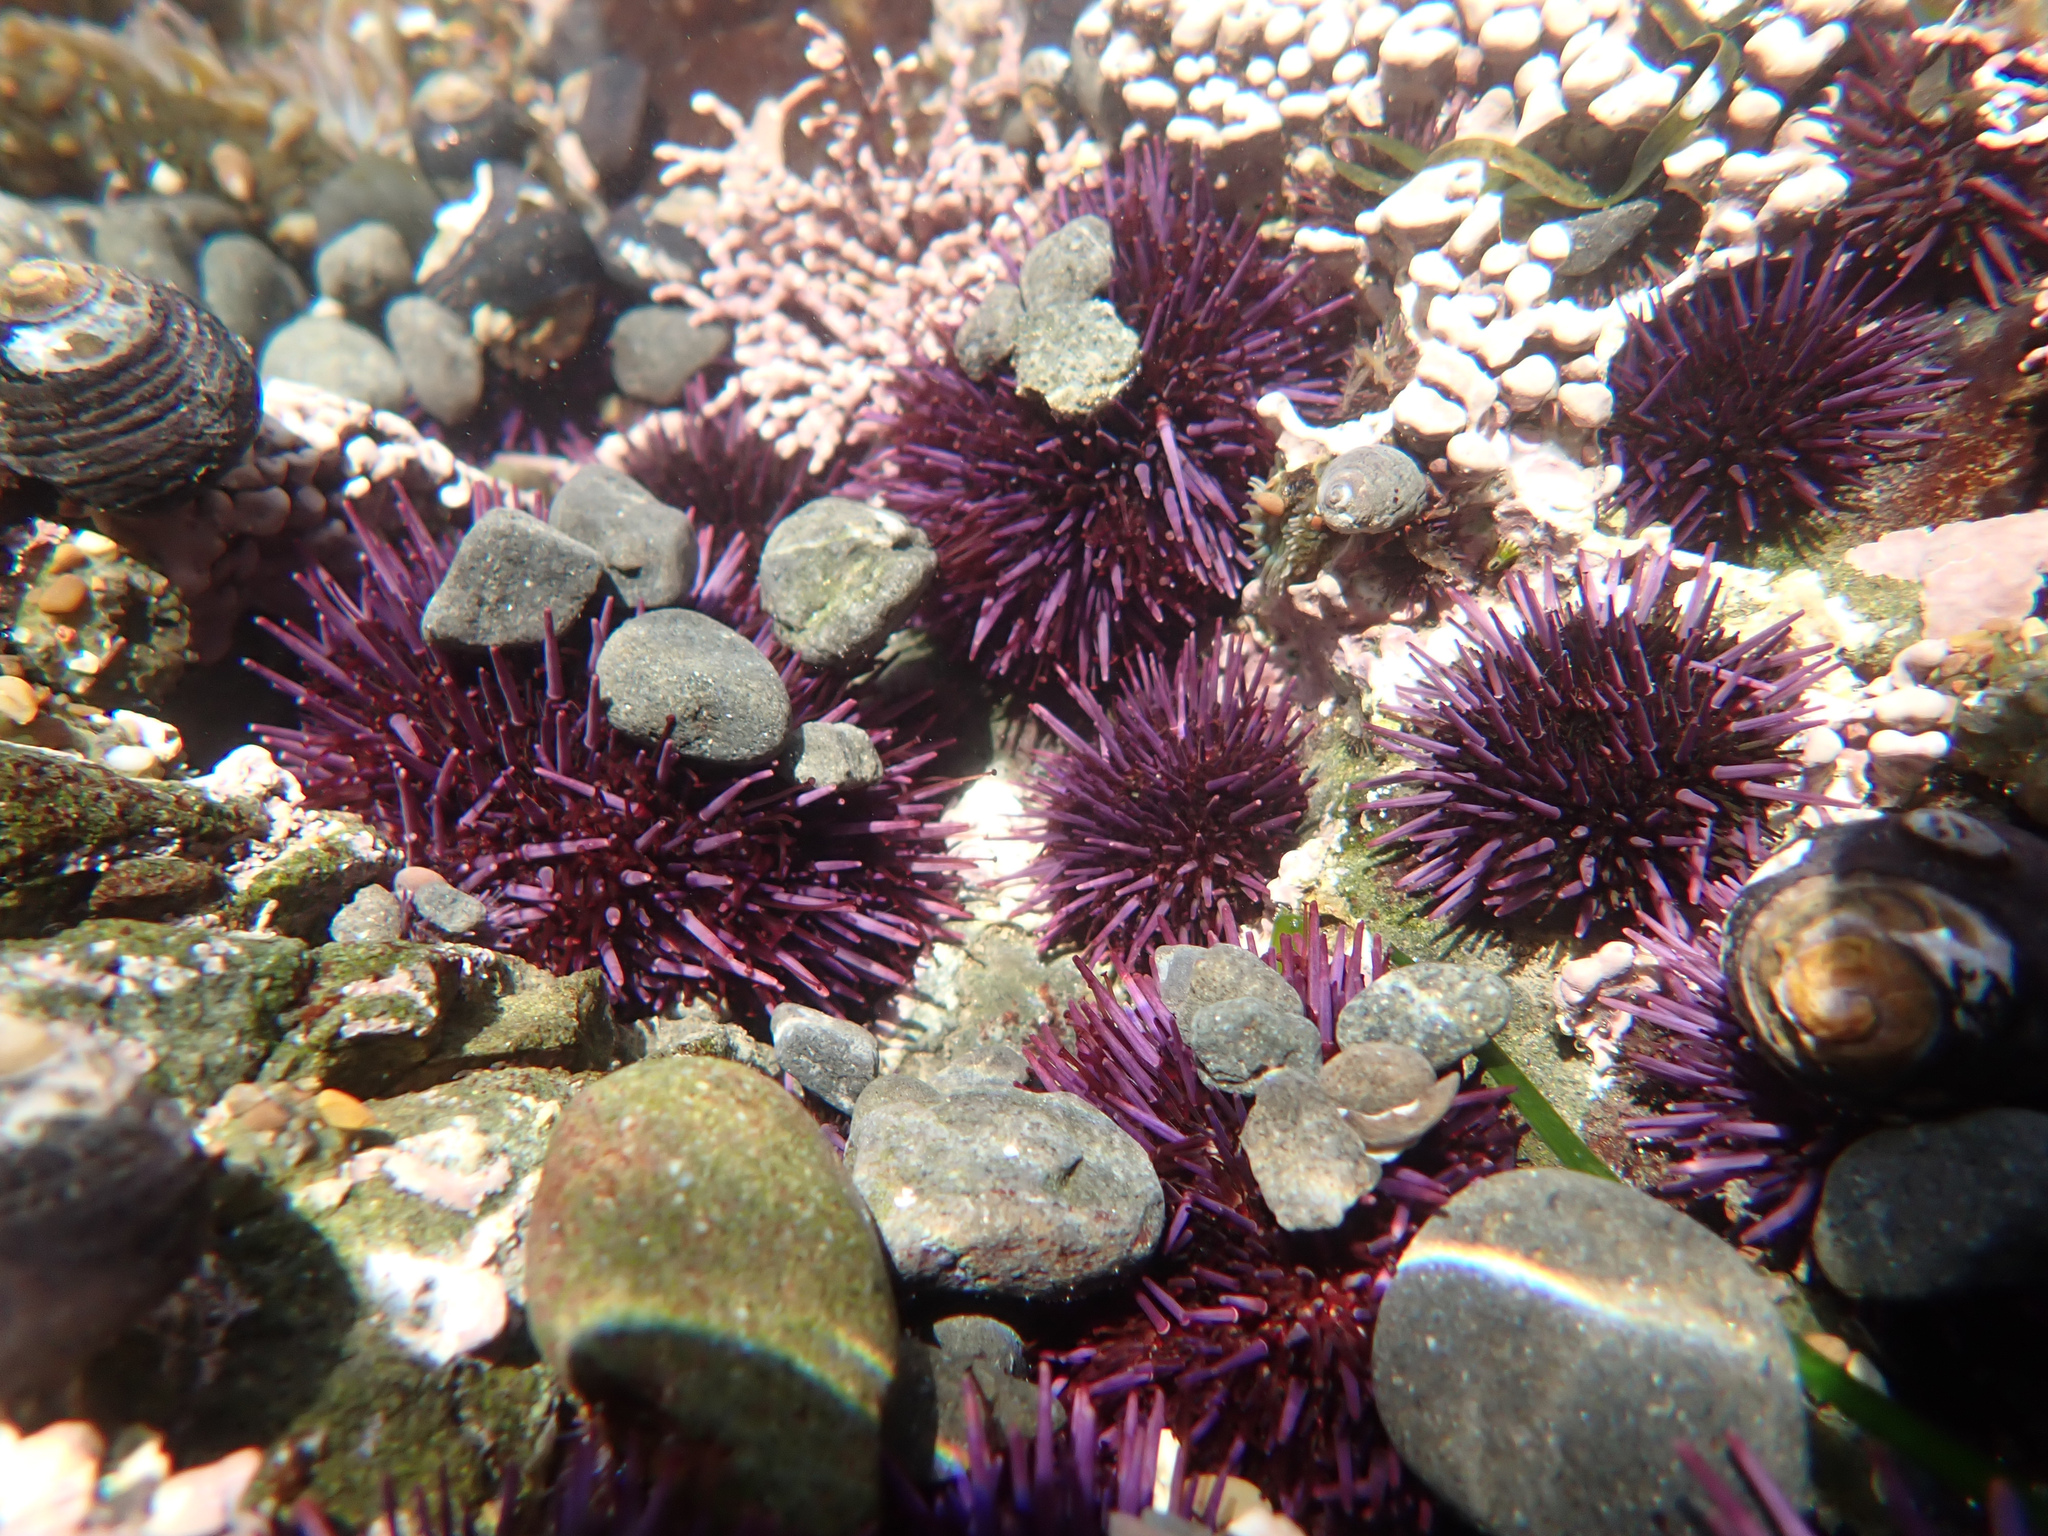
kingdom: Animalia
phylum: Echinodermata
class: Echinoidea
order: Camarodonta
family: Strongylocentrotidae
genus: Strongylocentrotus
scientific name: Strongylocentrotus purpuratus
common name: Purple sea urchin
